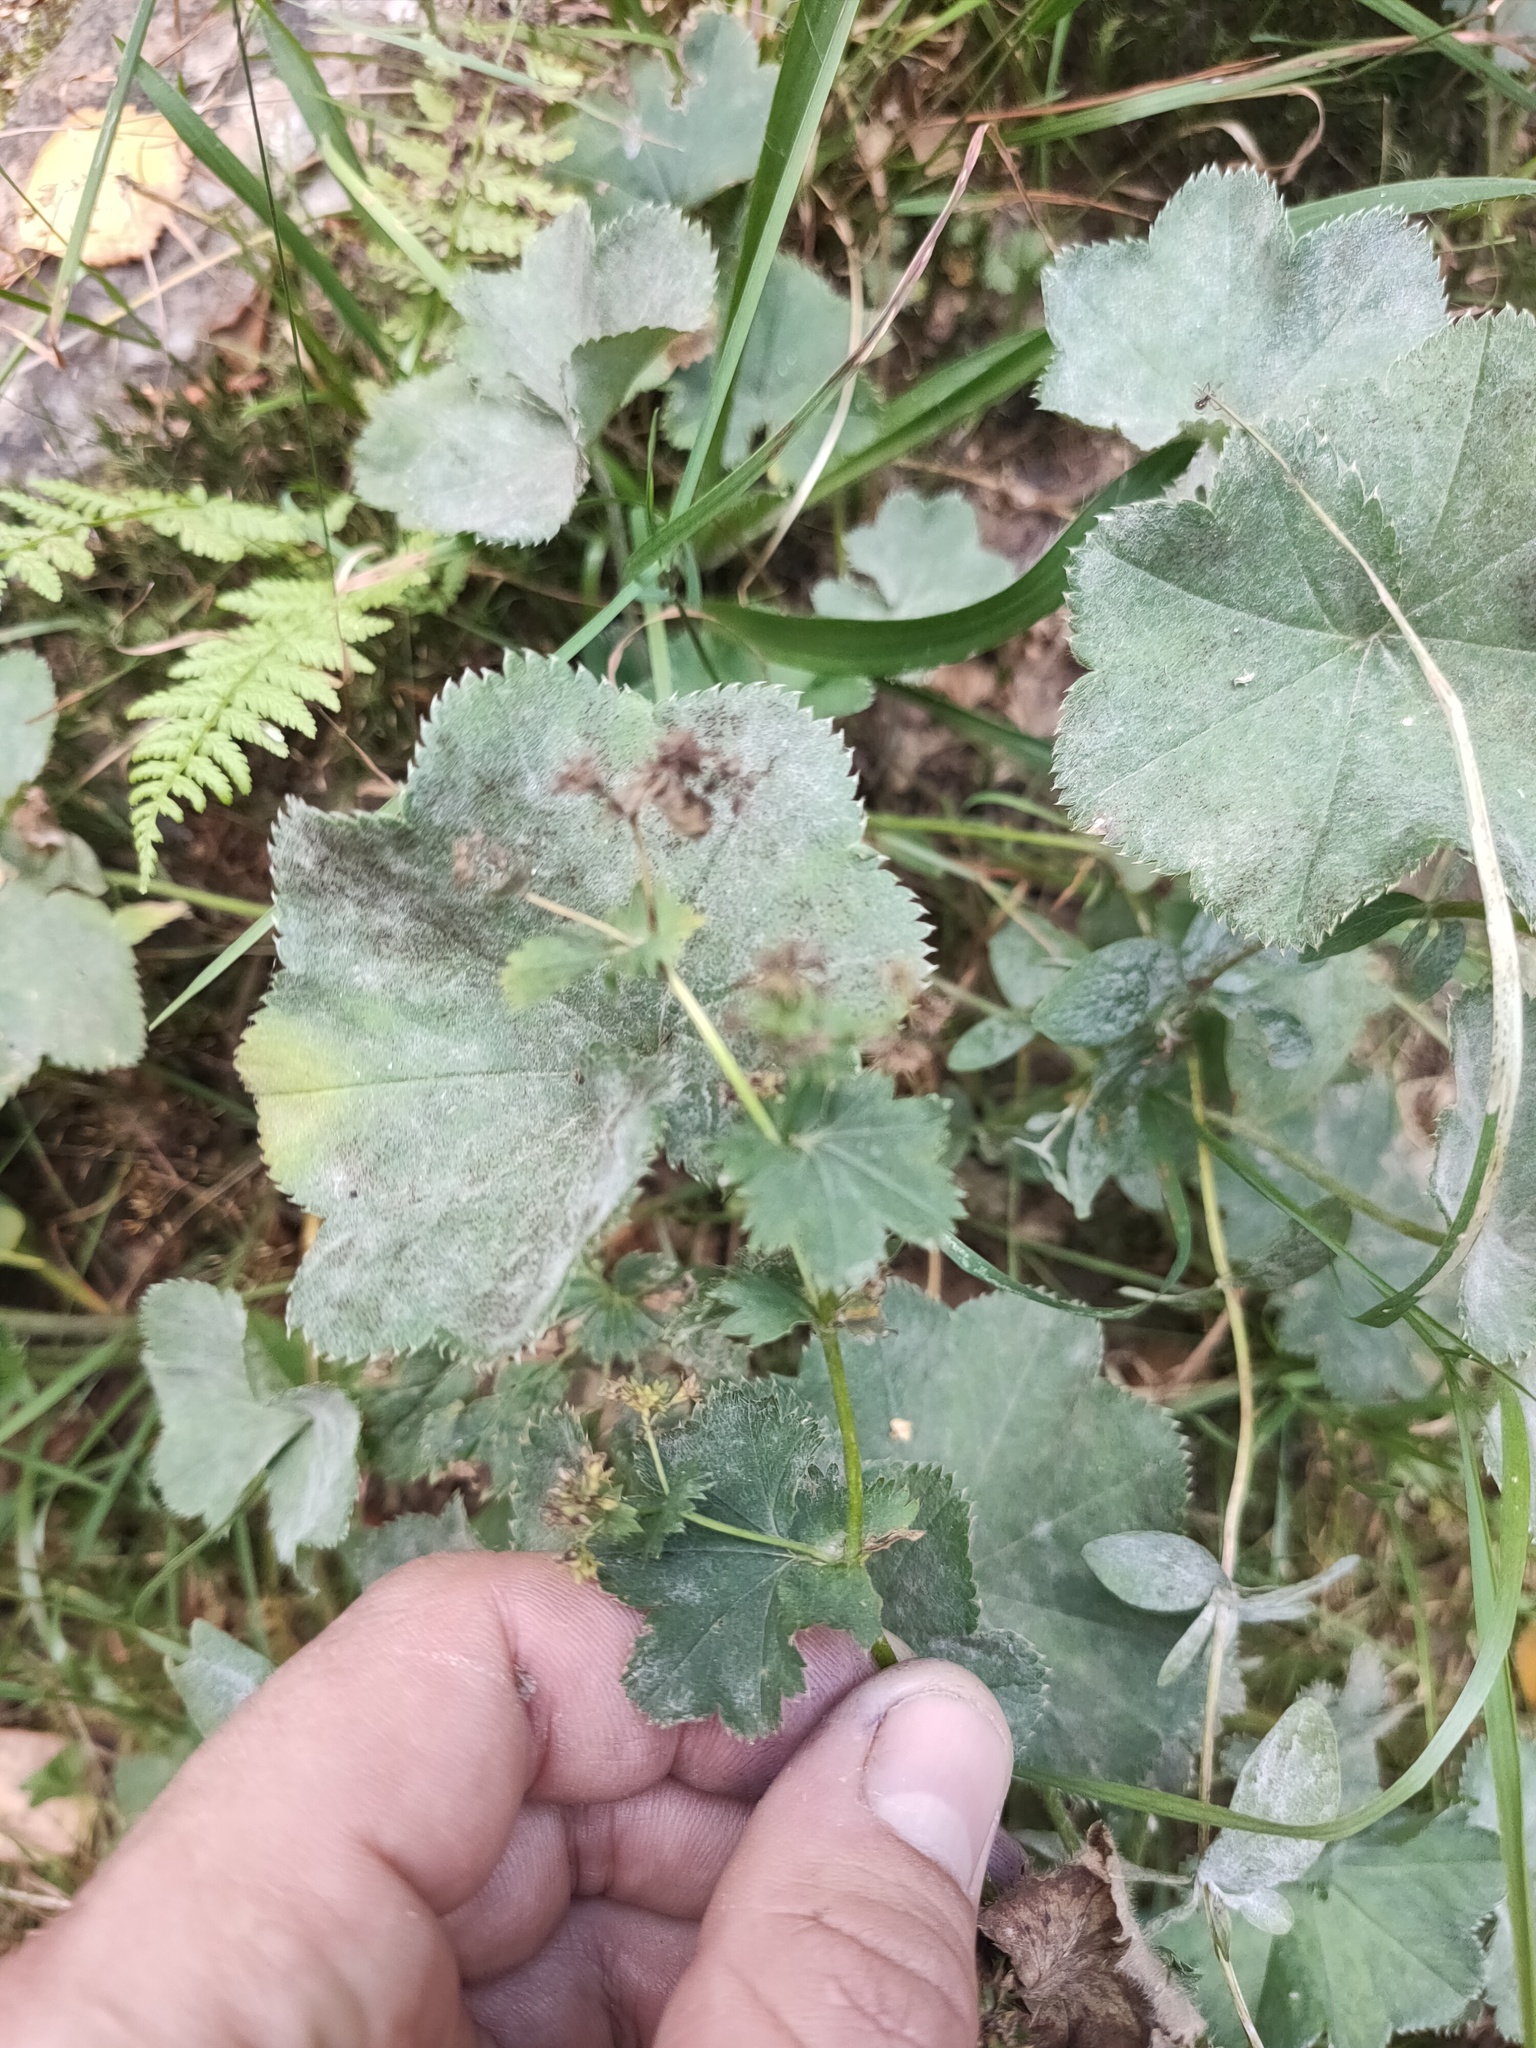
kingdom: Plantae
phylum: Tracheophyta
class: Magnoliopsida
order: Rosales
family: Rosaceae
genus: Alchemilla
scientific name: Alchemilla
